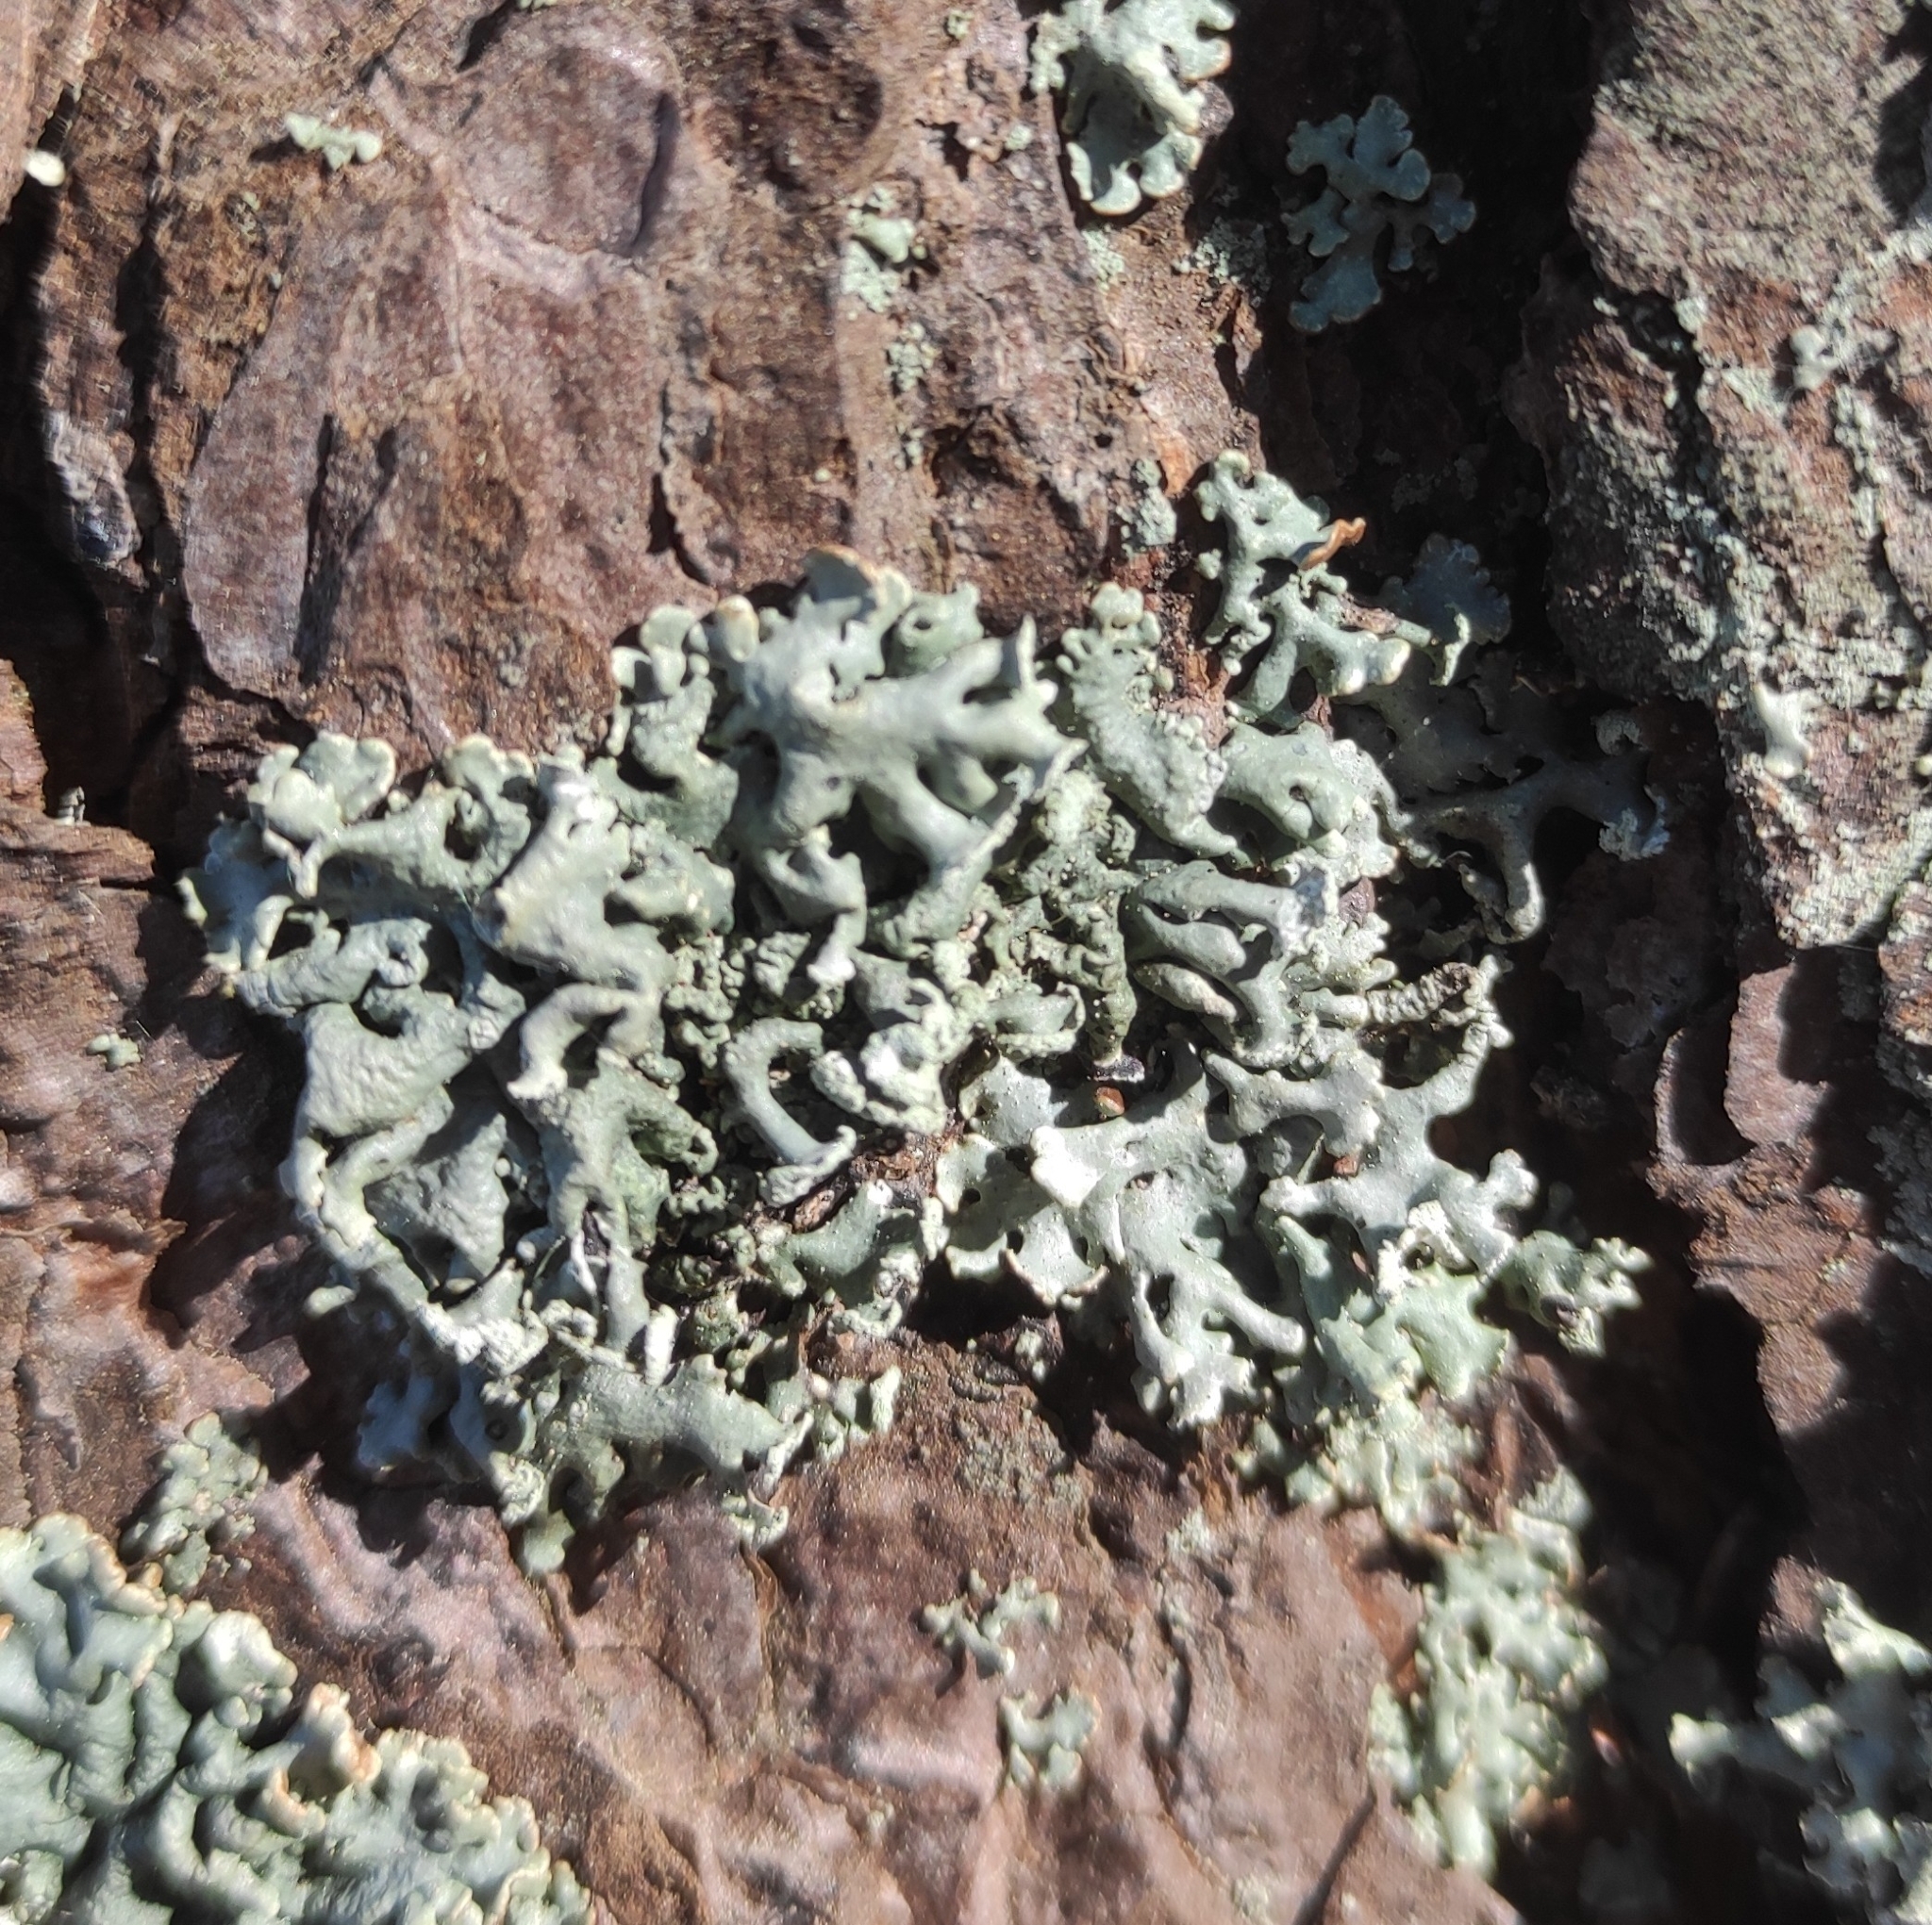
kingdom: Fungi
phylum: Ascomycota
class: Lecanoromycetes
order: Lecanorales
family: Parmeliaceae
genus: Hypogymnia
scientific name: Hypogymnia physodes
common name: Dark crottle
